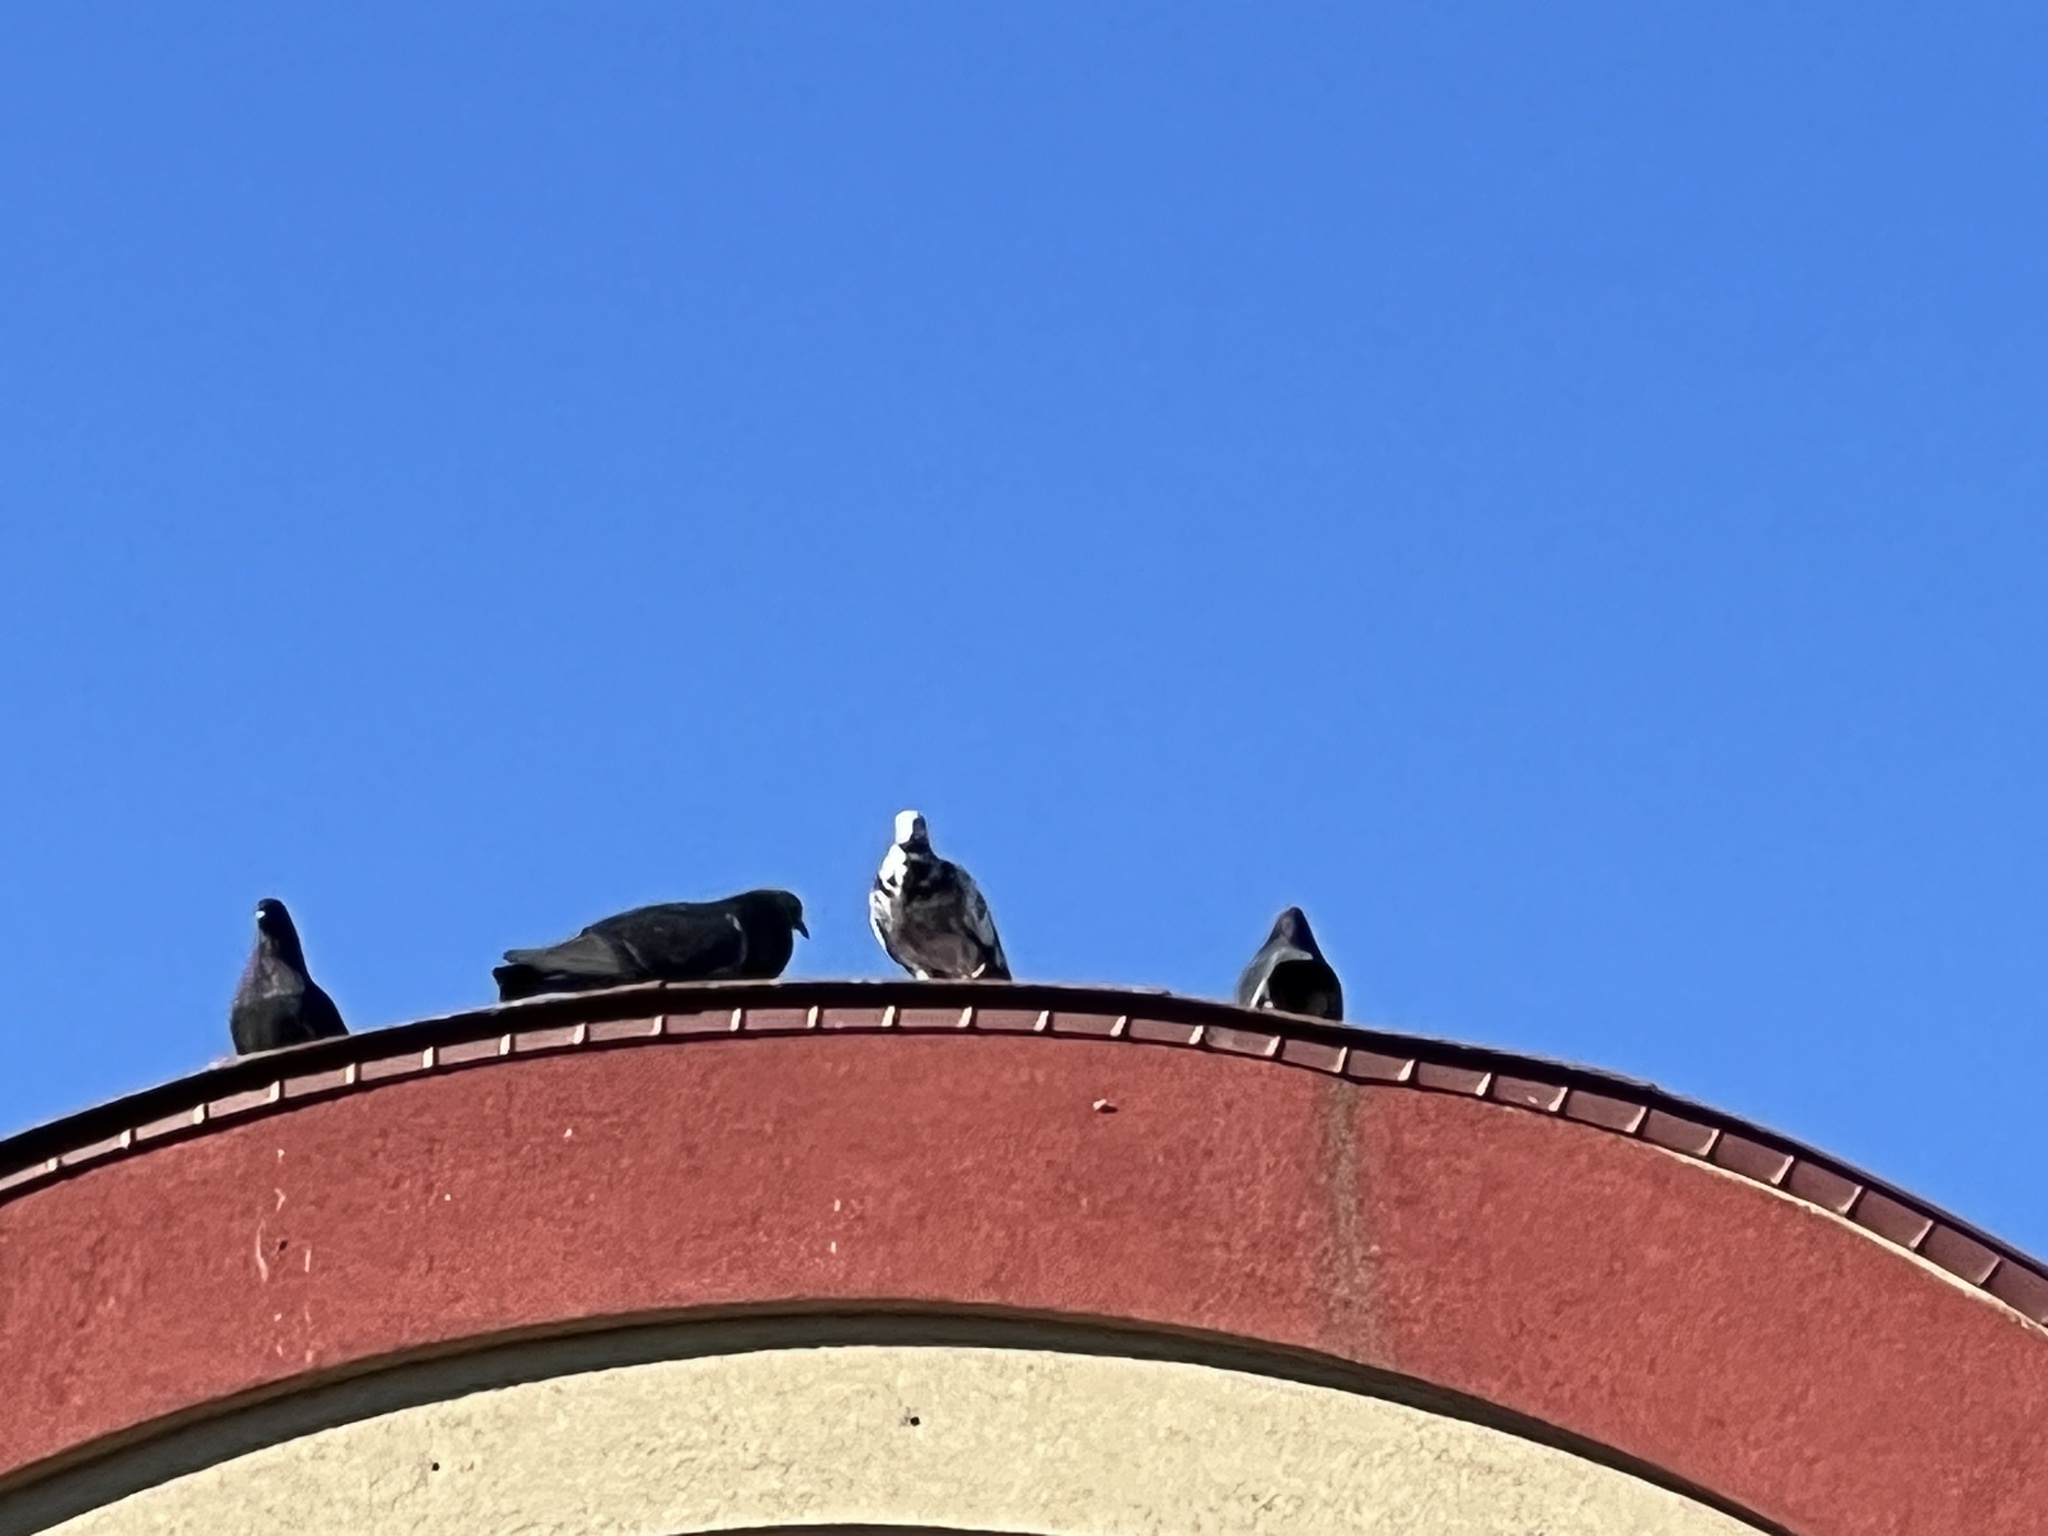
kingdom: Animalia
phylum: Chordata
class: Aves
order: Columbiformes
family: Columbidae
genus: Columba
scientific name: Columba livia
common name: Rock pigeon
